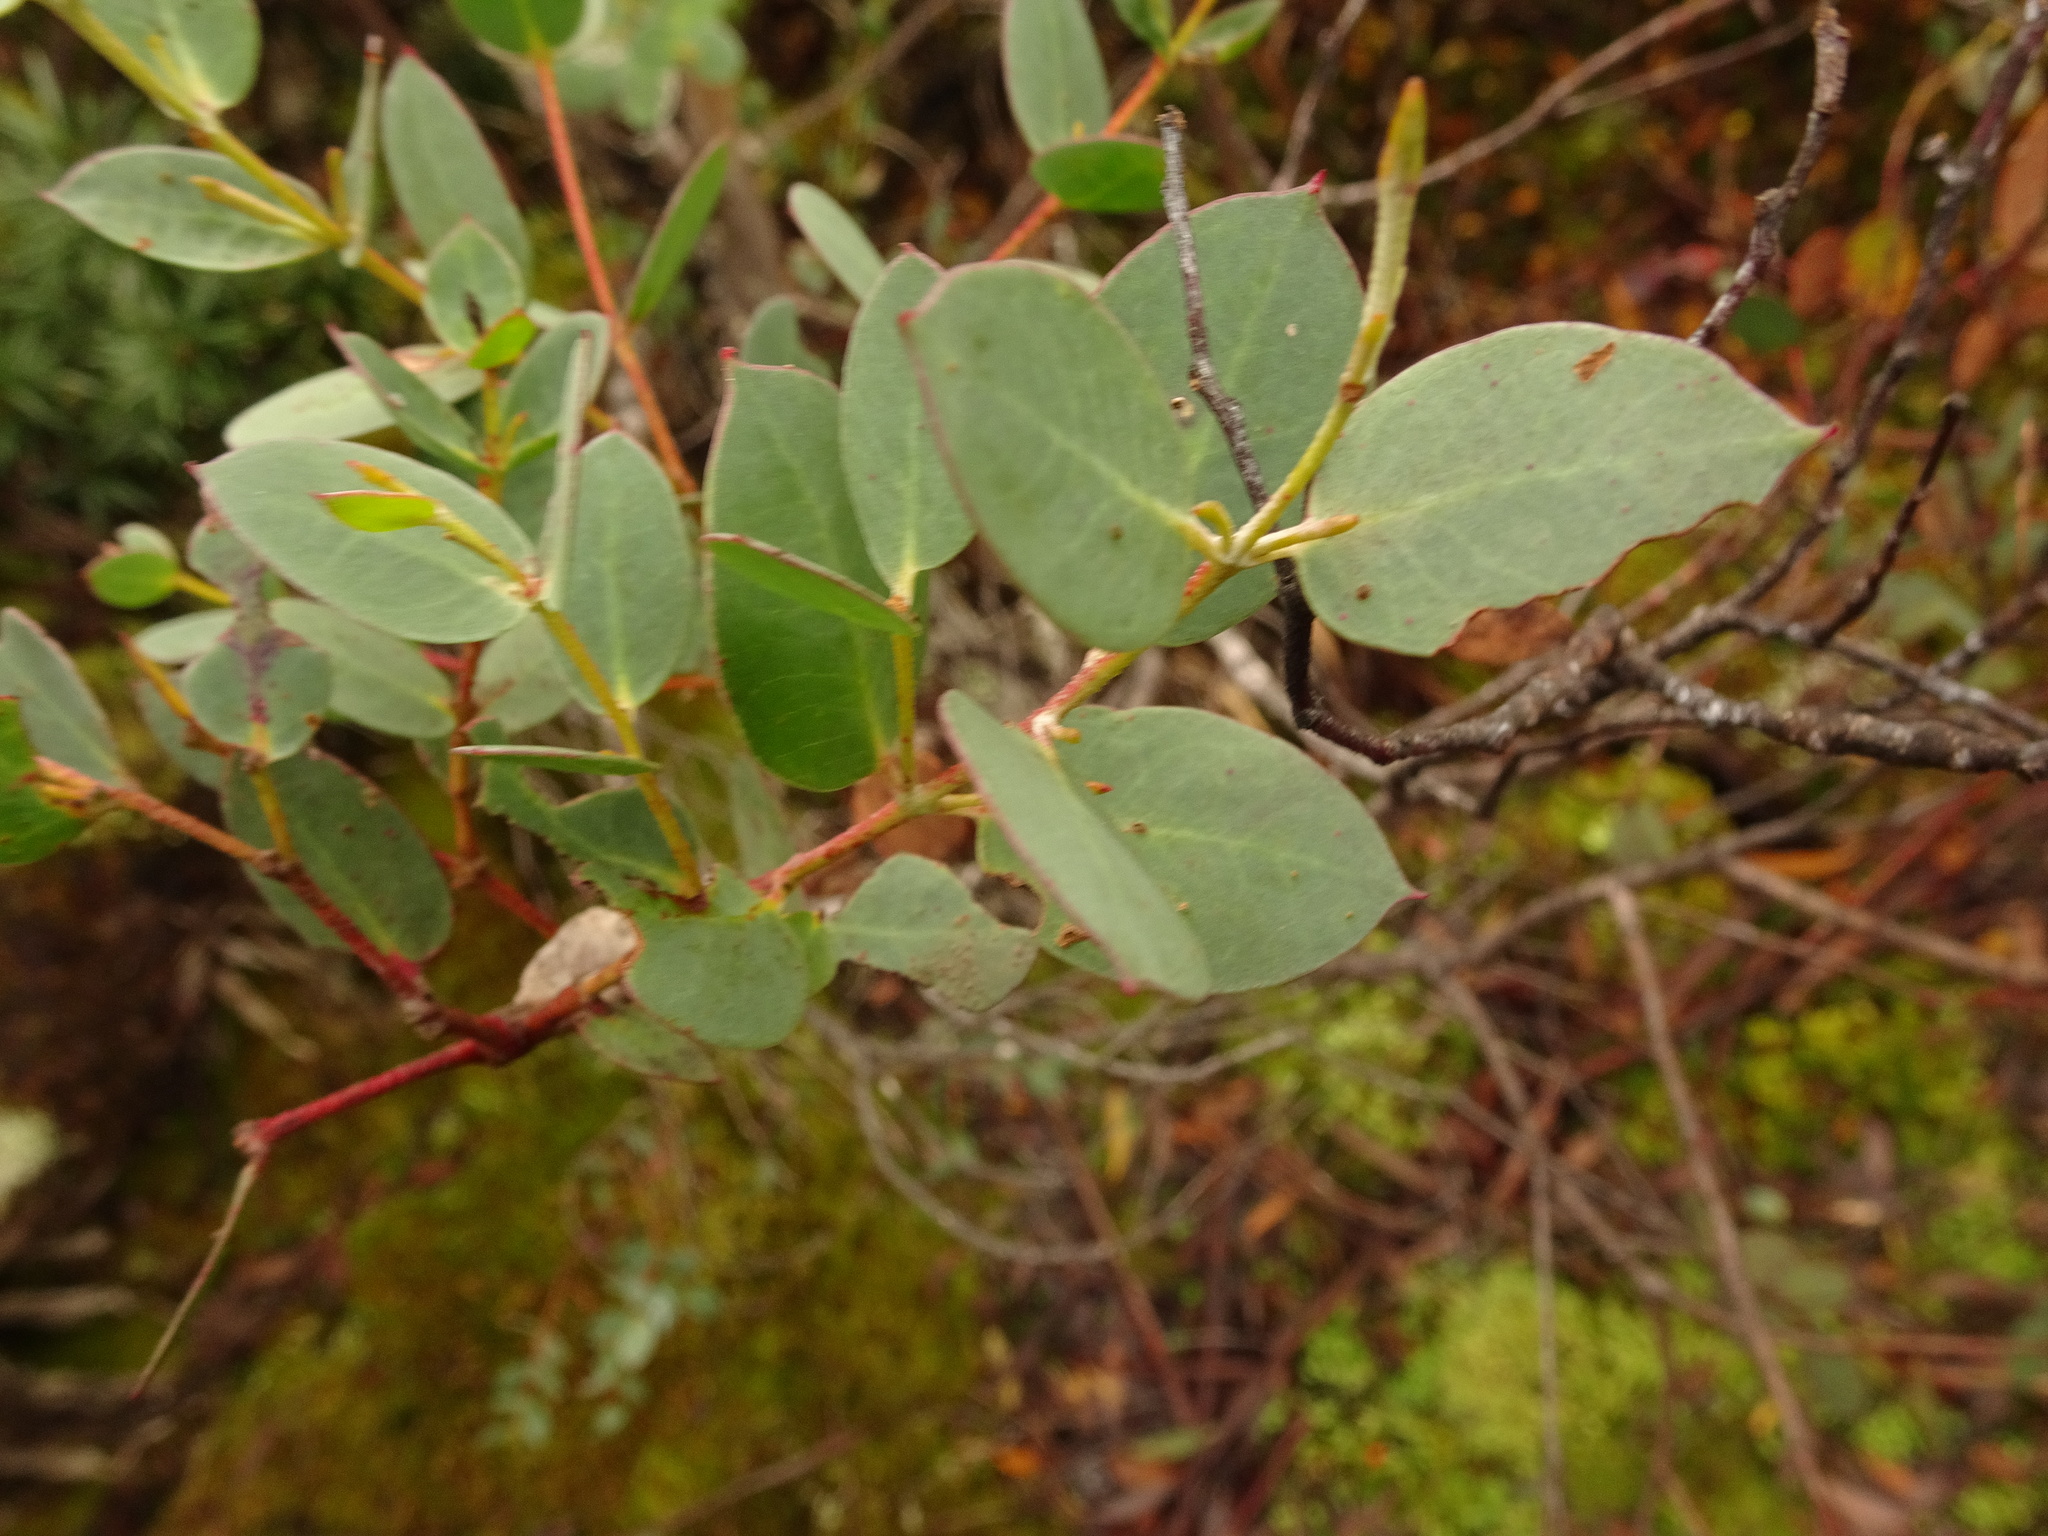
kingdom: Plantae
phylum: Tracheophyta
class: Magnoliopsida
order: Myrtales
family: Myrtaceae
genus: Eucalyptus
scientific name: Eucalyptus coccifera
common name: Tasmanian snow-gum
